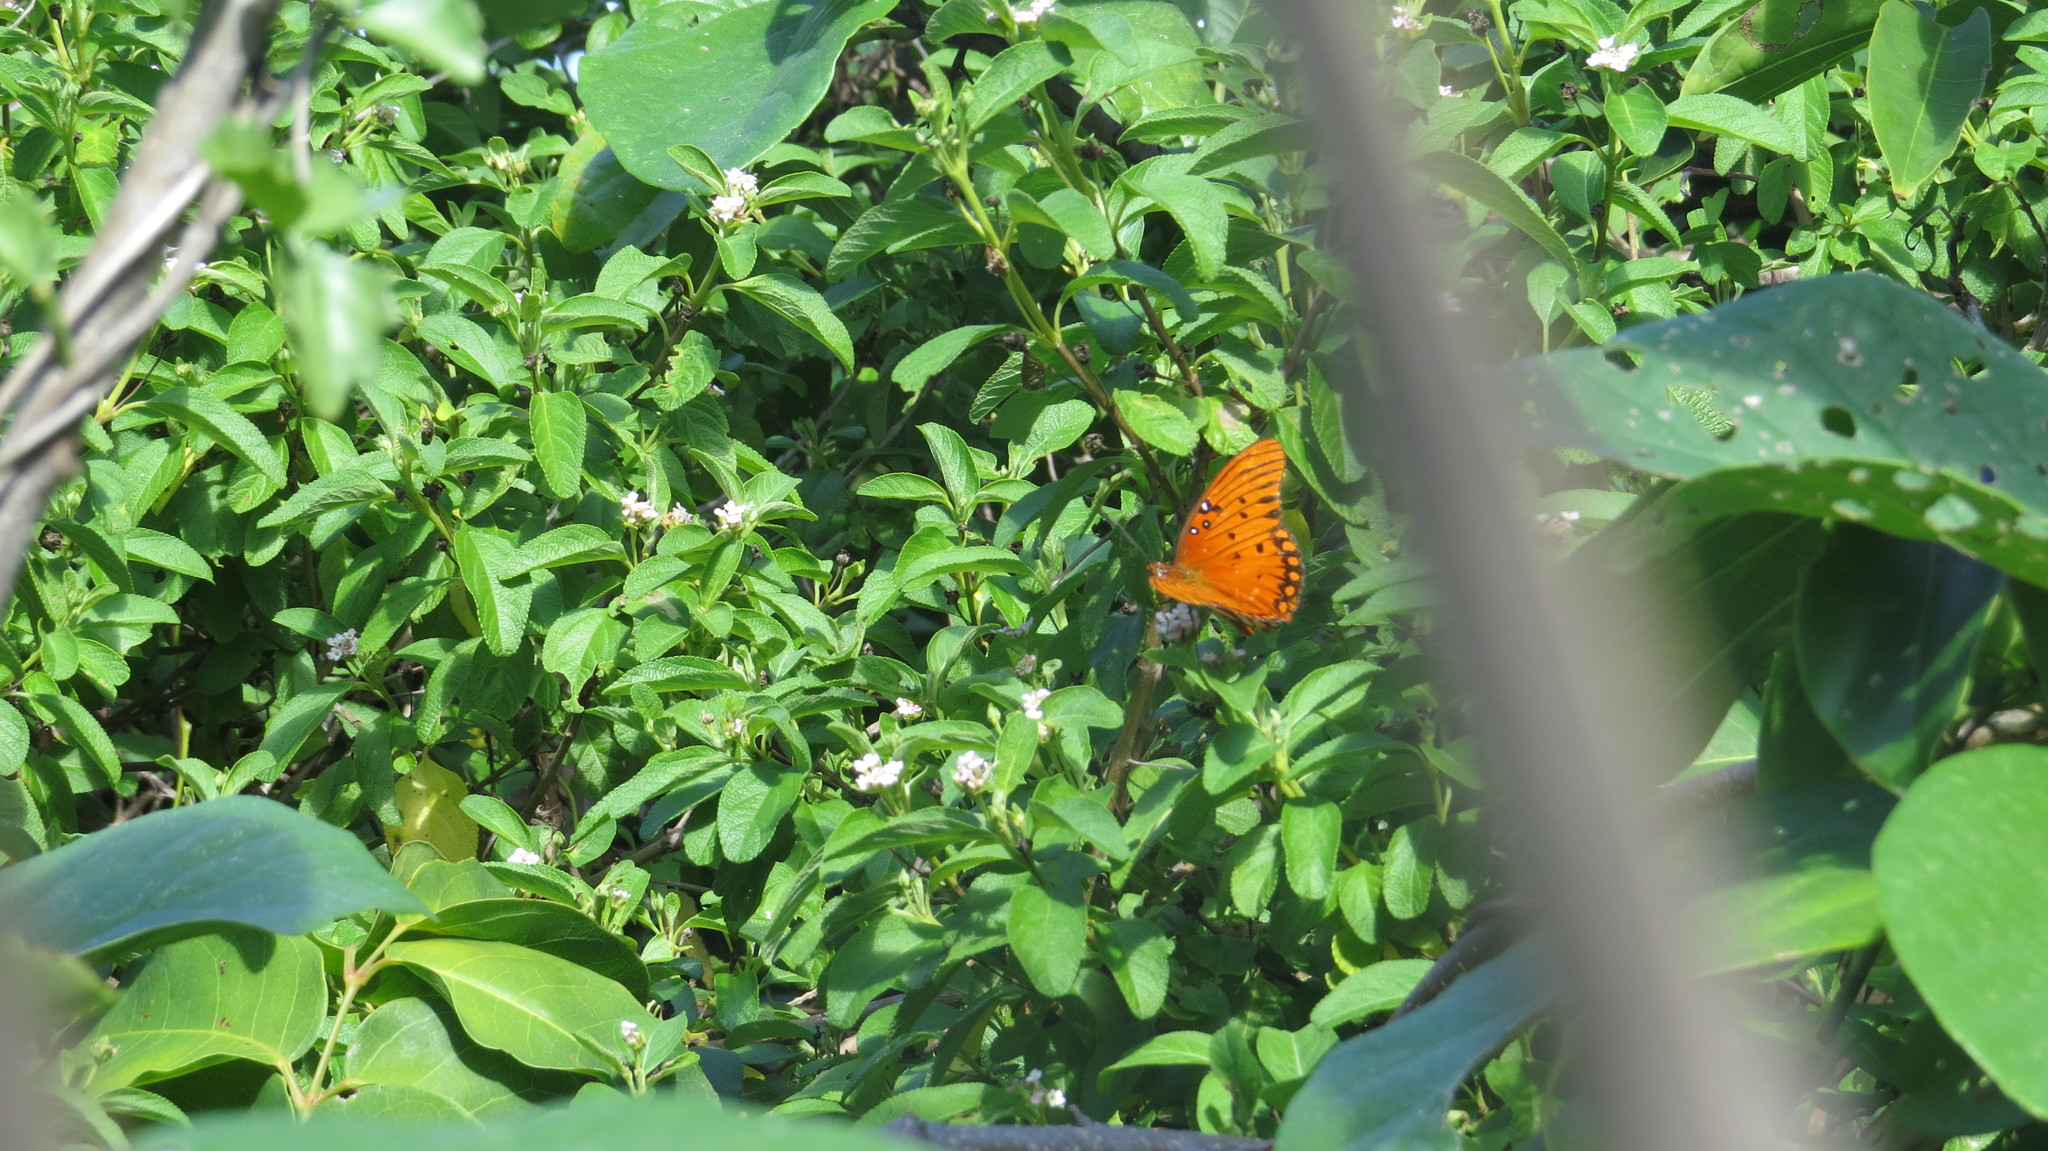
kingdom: Animalia
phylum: Arthropoda
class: Insecta
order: Lepidoptera
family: Nymphalidae
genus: Dione
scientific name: Dione vanillae
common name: Gulf fritillary
